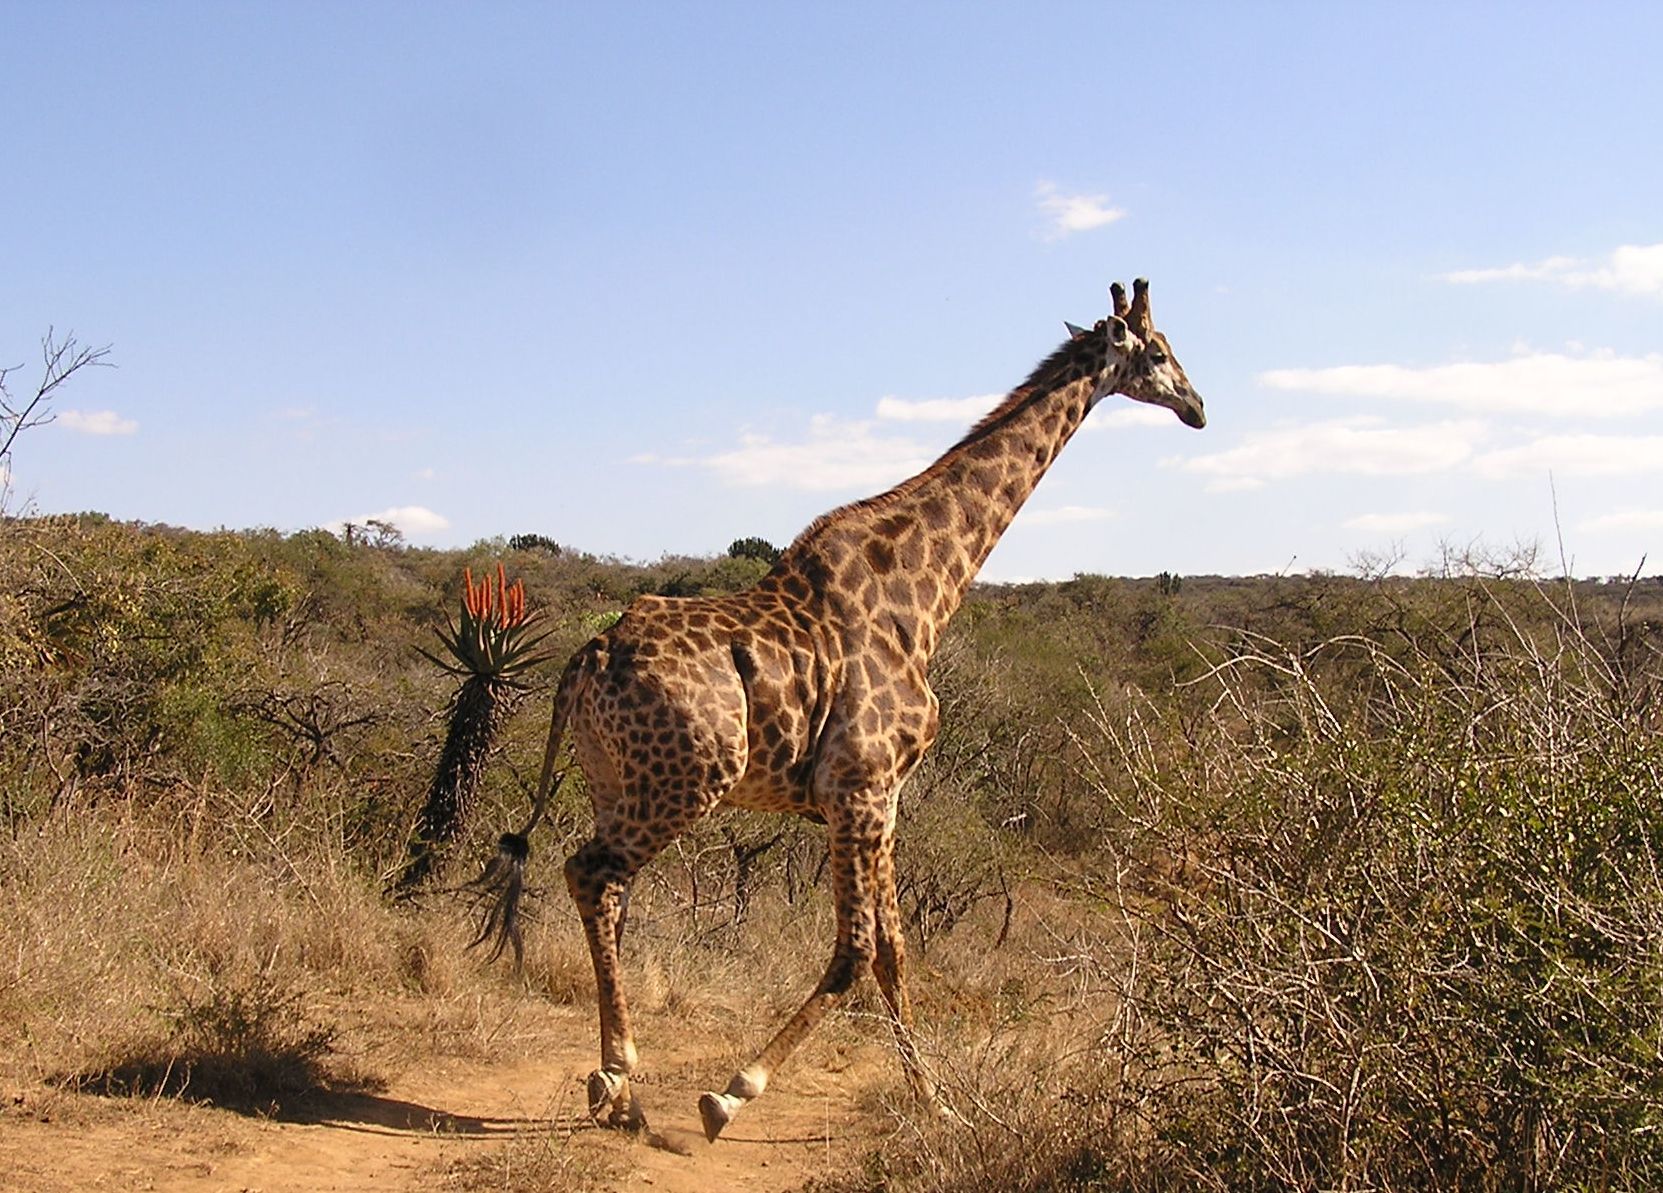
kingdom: Animalia
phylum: Chordata
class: Mammalia
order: Artiodactyla
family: Giraffidae
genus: Giraffa
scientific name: Giraffa giraffa
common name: Southern giraffe
